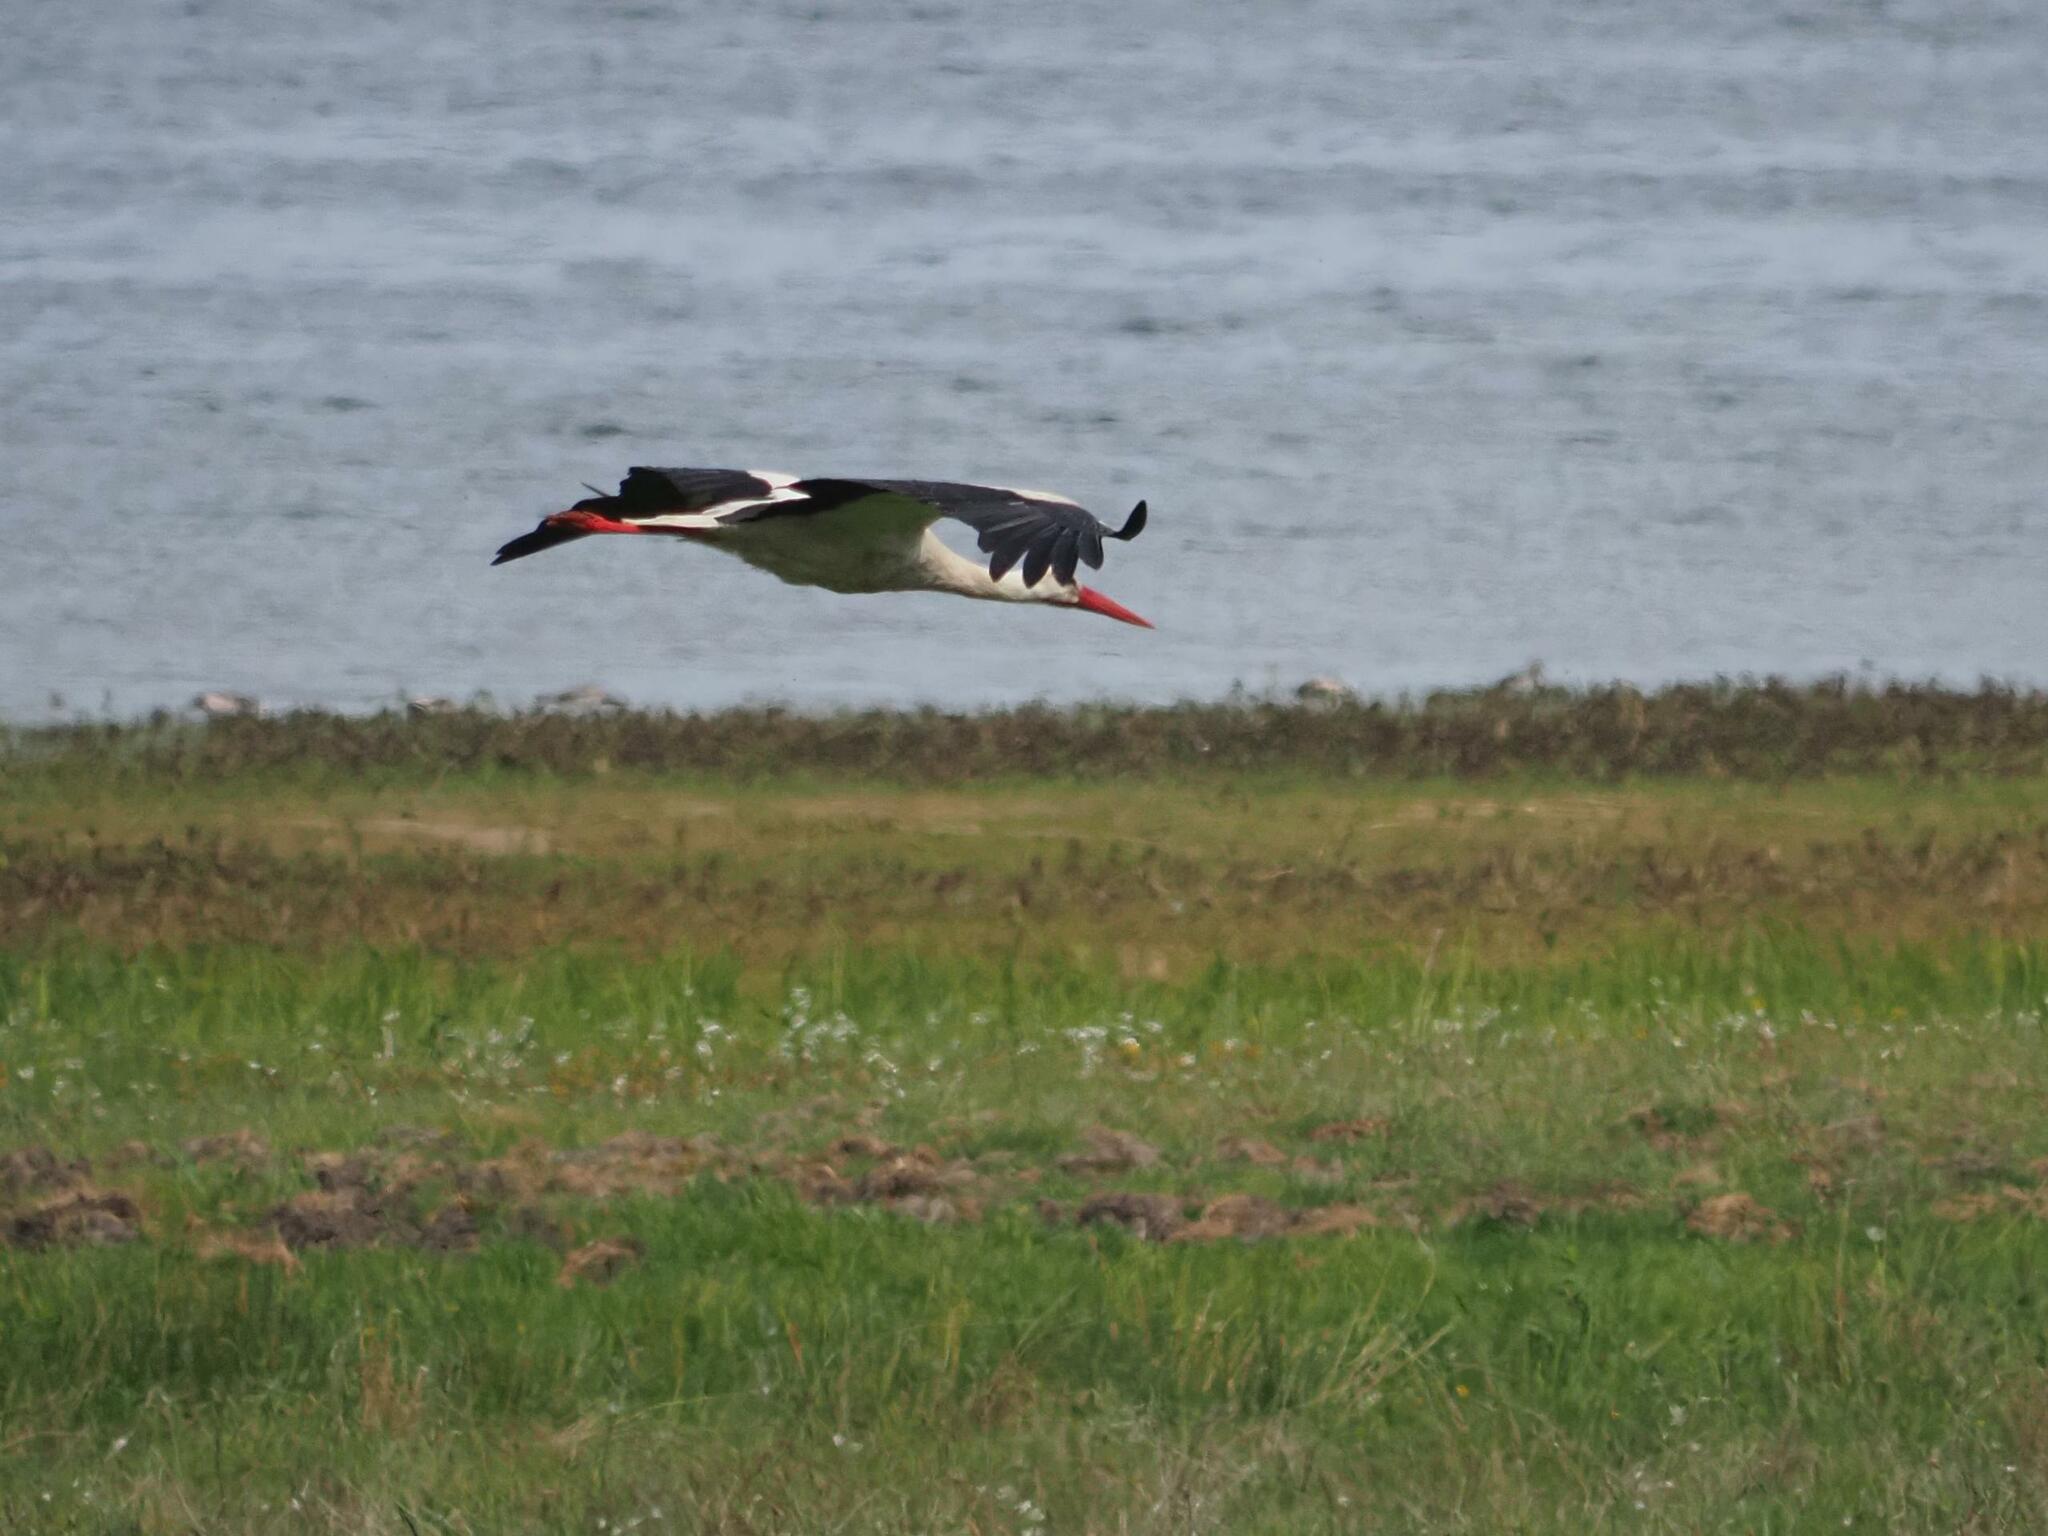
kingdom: Animalia
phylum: Chordata
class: Aves
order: Ciconiiformes
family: Ciconiidae
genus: Ciconia
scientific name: Ciconia ciconia
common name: White stork
